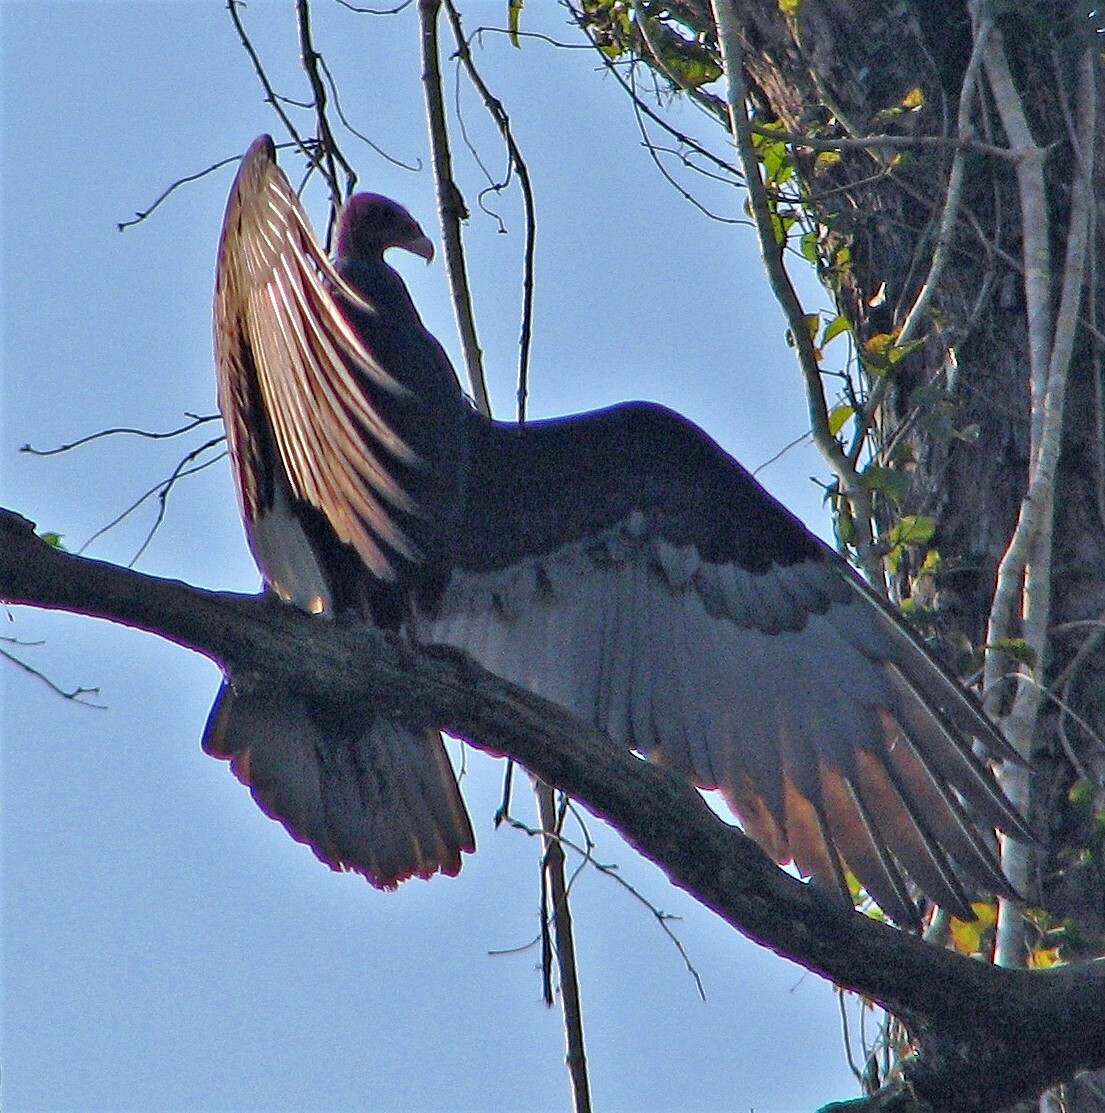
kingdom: Animalia
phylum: Chordata
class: Aves
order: Accipitriformes
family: Cathartidae
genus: Cathartes
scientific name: Cathartes aura
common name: Turkey vulture
